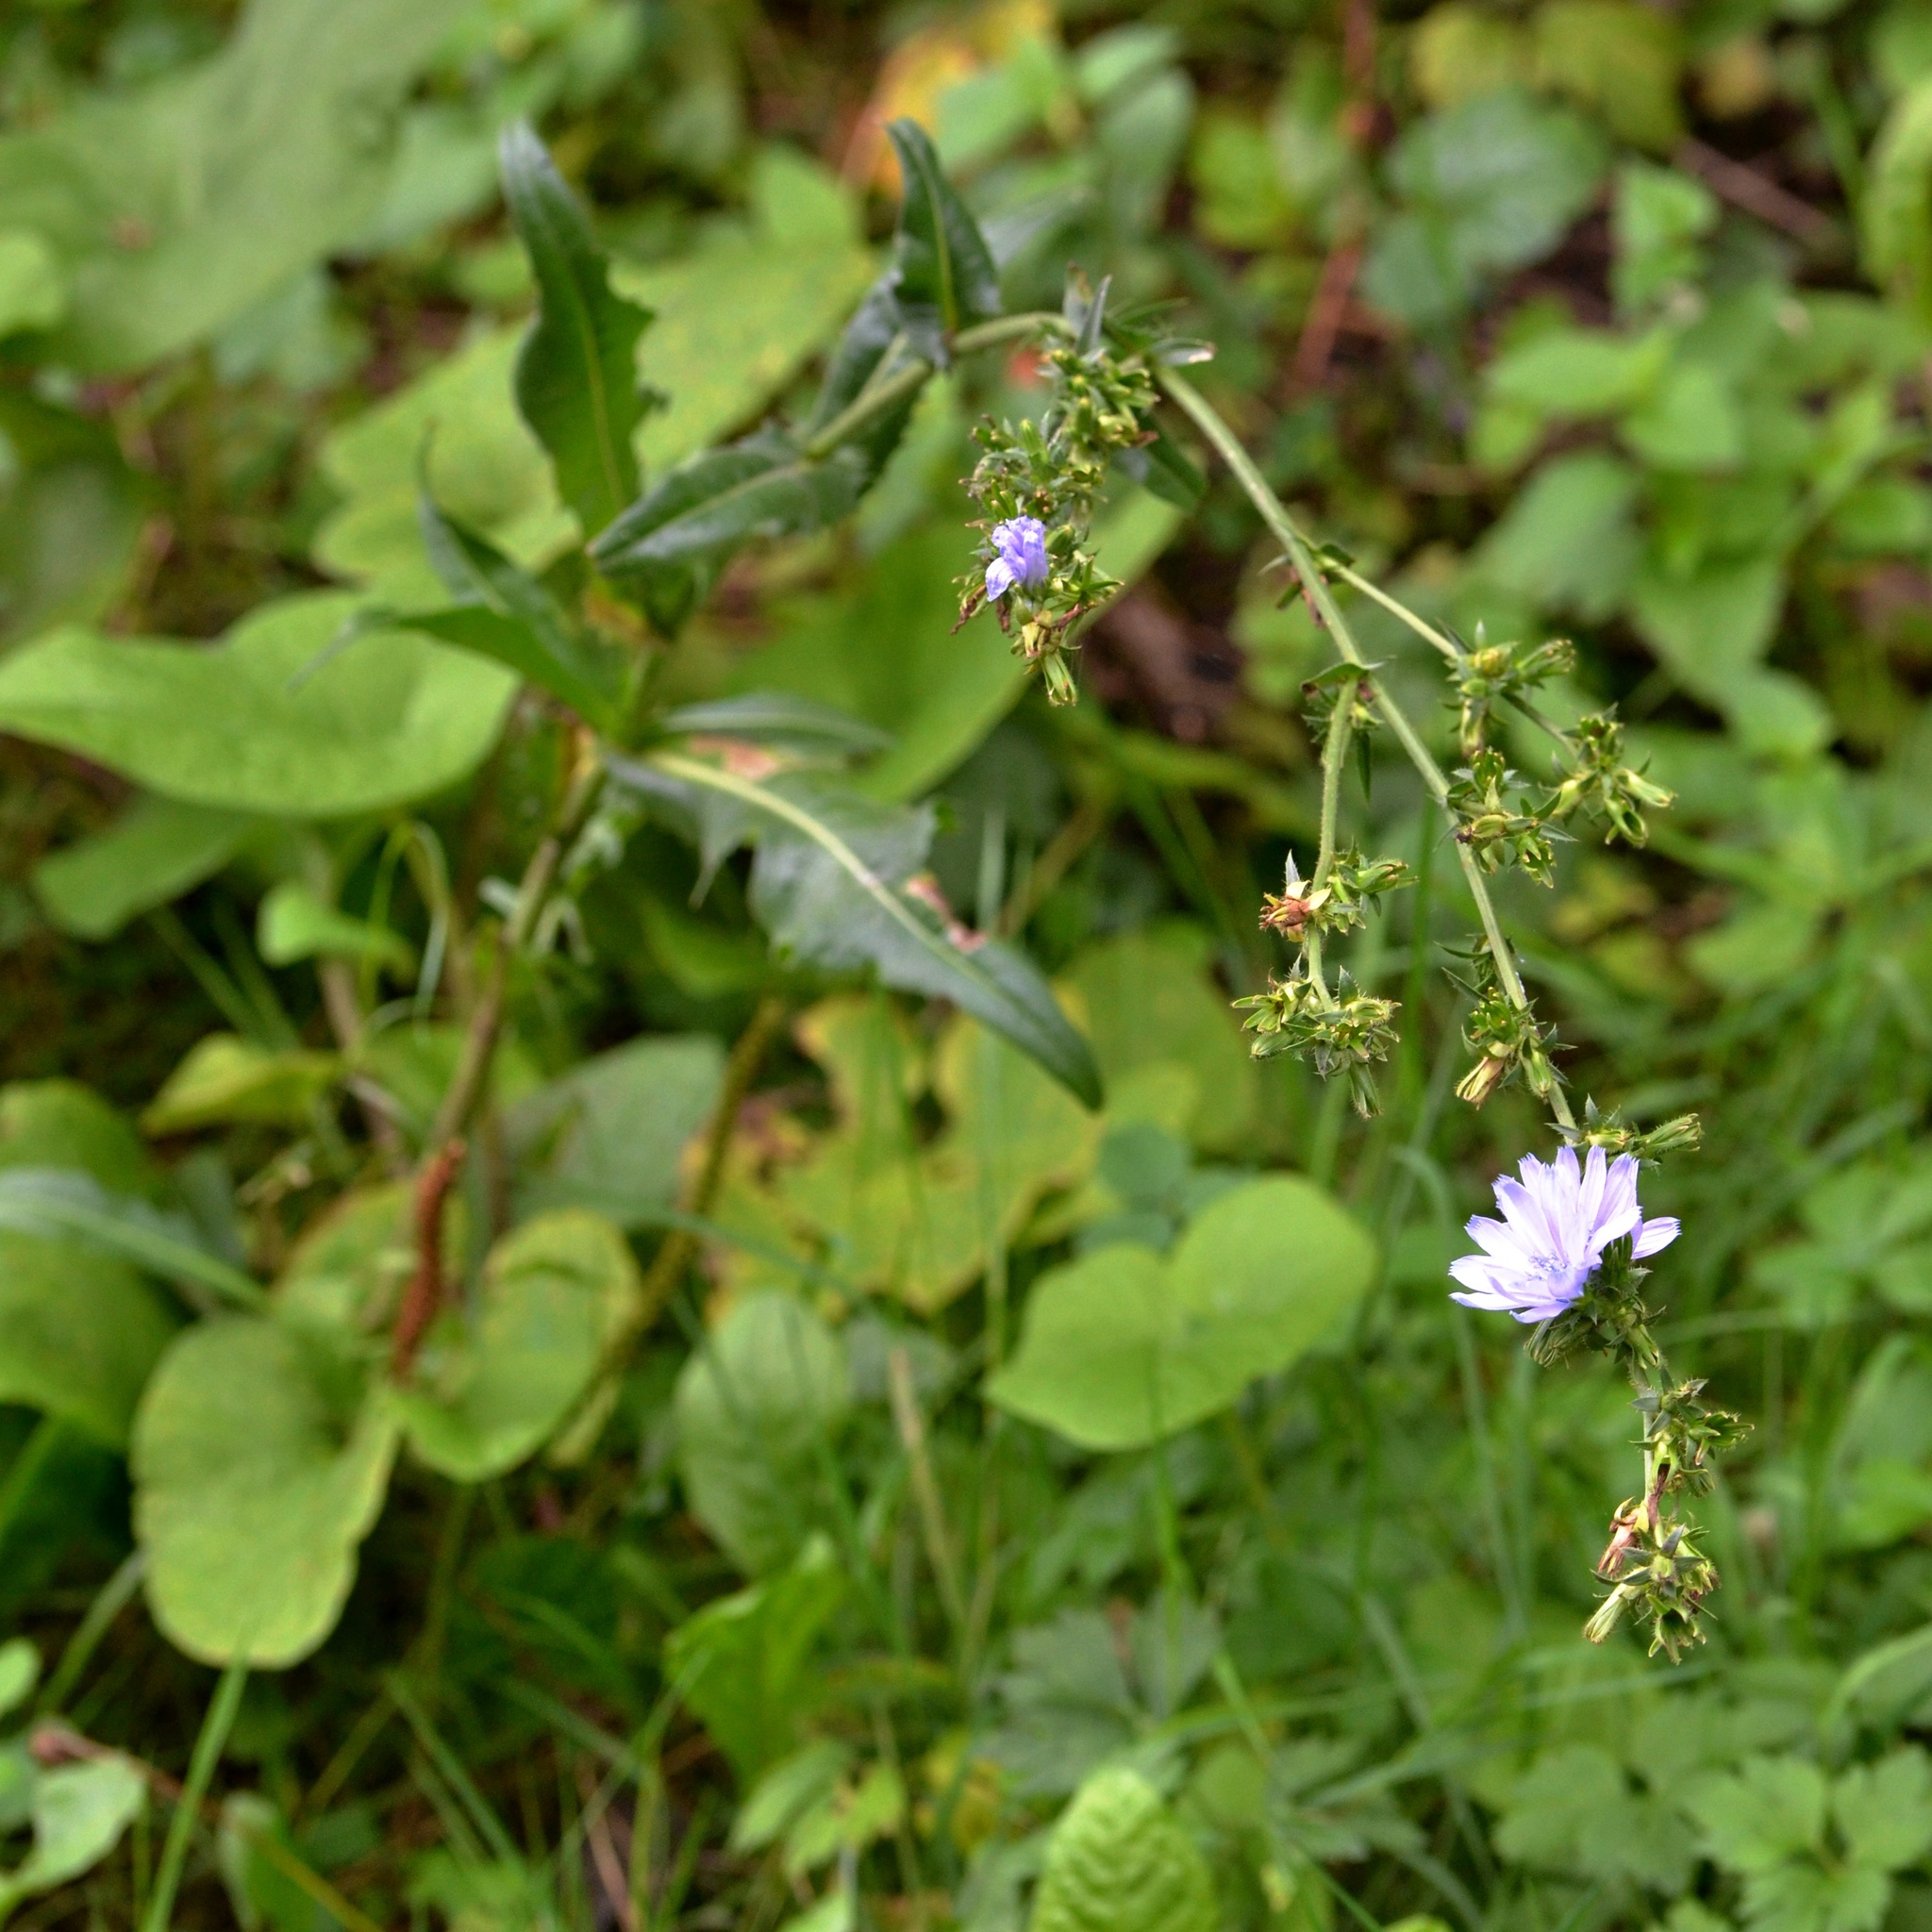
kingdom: Plantae
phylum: Tracheophyta
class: Magnoliopsida
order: Asterales
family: Asteraceae
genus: Cichorium
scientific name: Cichorium intybus
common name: Chicory
